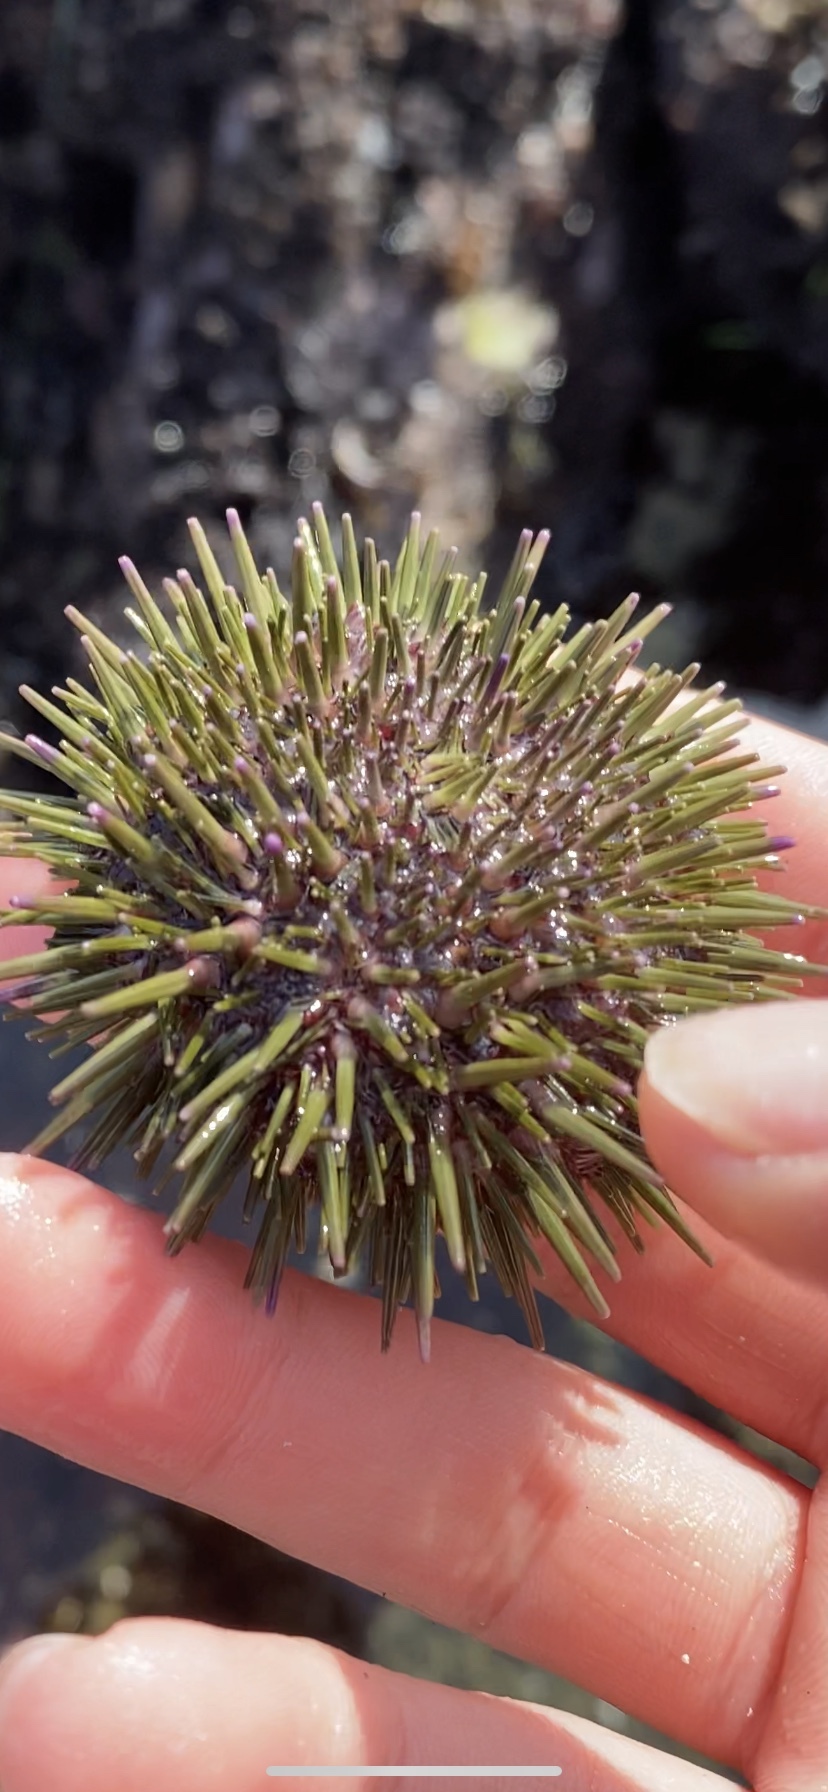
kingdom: Animalia
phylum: Echinodermata
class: Echinoidea
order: Camarodonta
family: Strongylocentrotidae
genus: Strongylocentrotus
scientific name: Strongylocentrotus purpuratus
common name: Purple sea urchin
